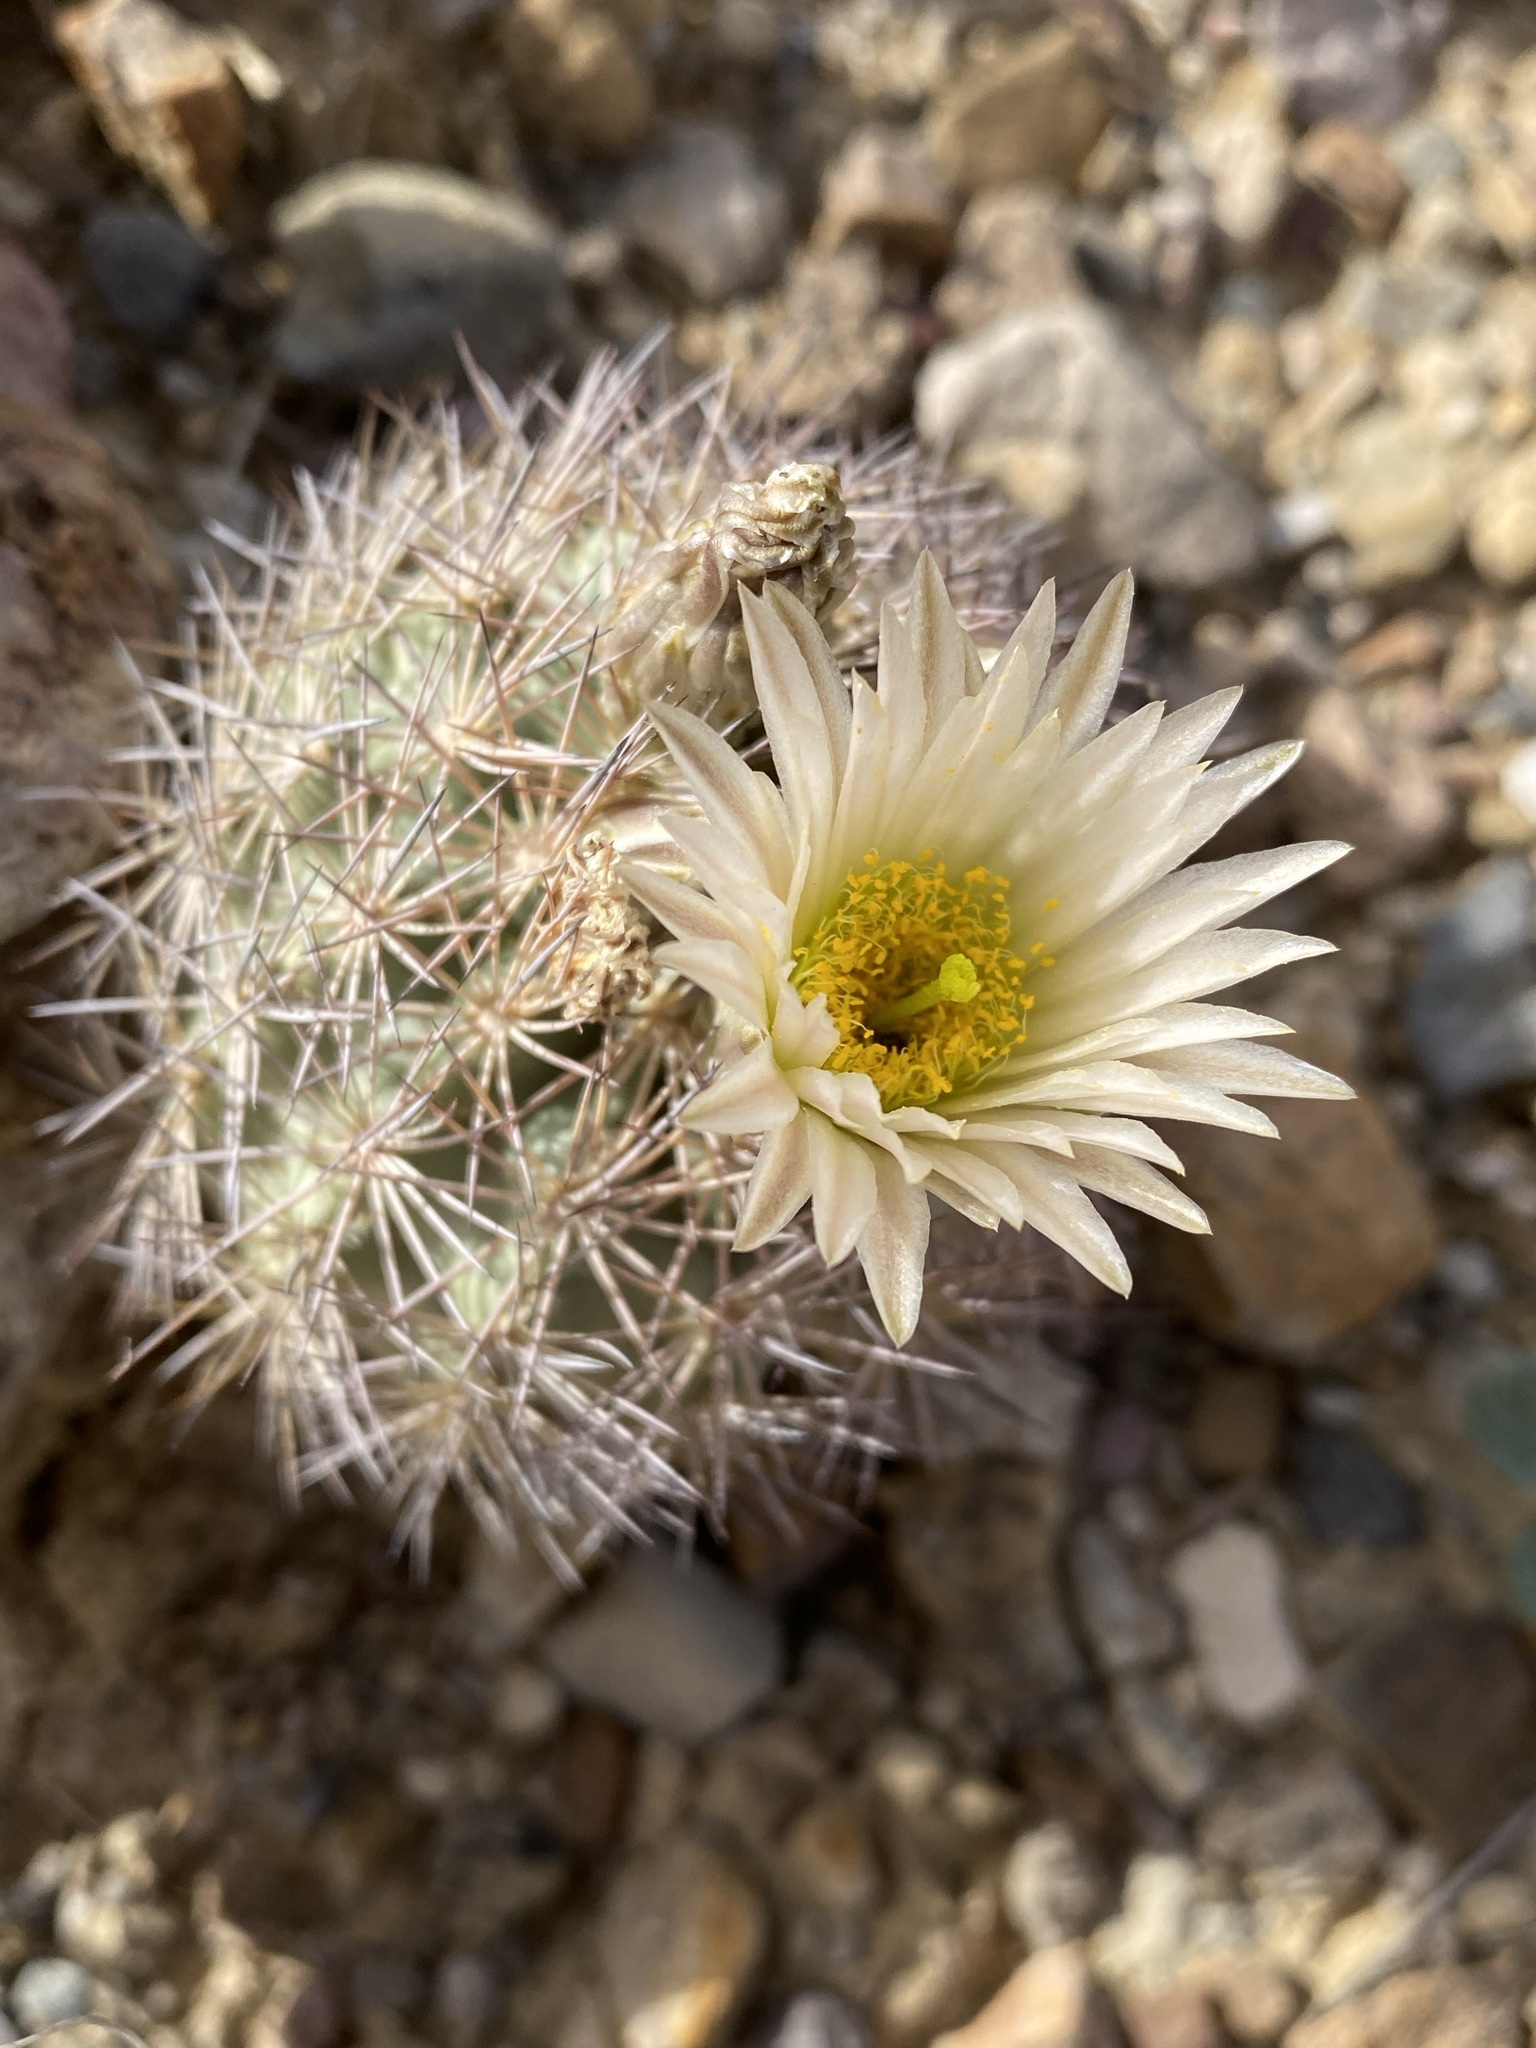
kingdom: Plantae
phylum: Tracheophyta
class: Magnoliopsida
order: Caryophyllales
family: Cactaceae
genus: Sclerocactus
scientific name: Sclerocactus warnockii
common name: Pineapple cactus
